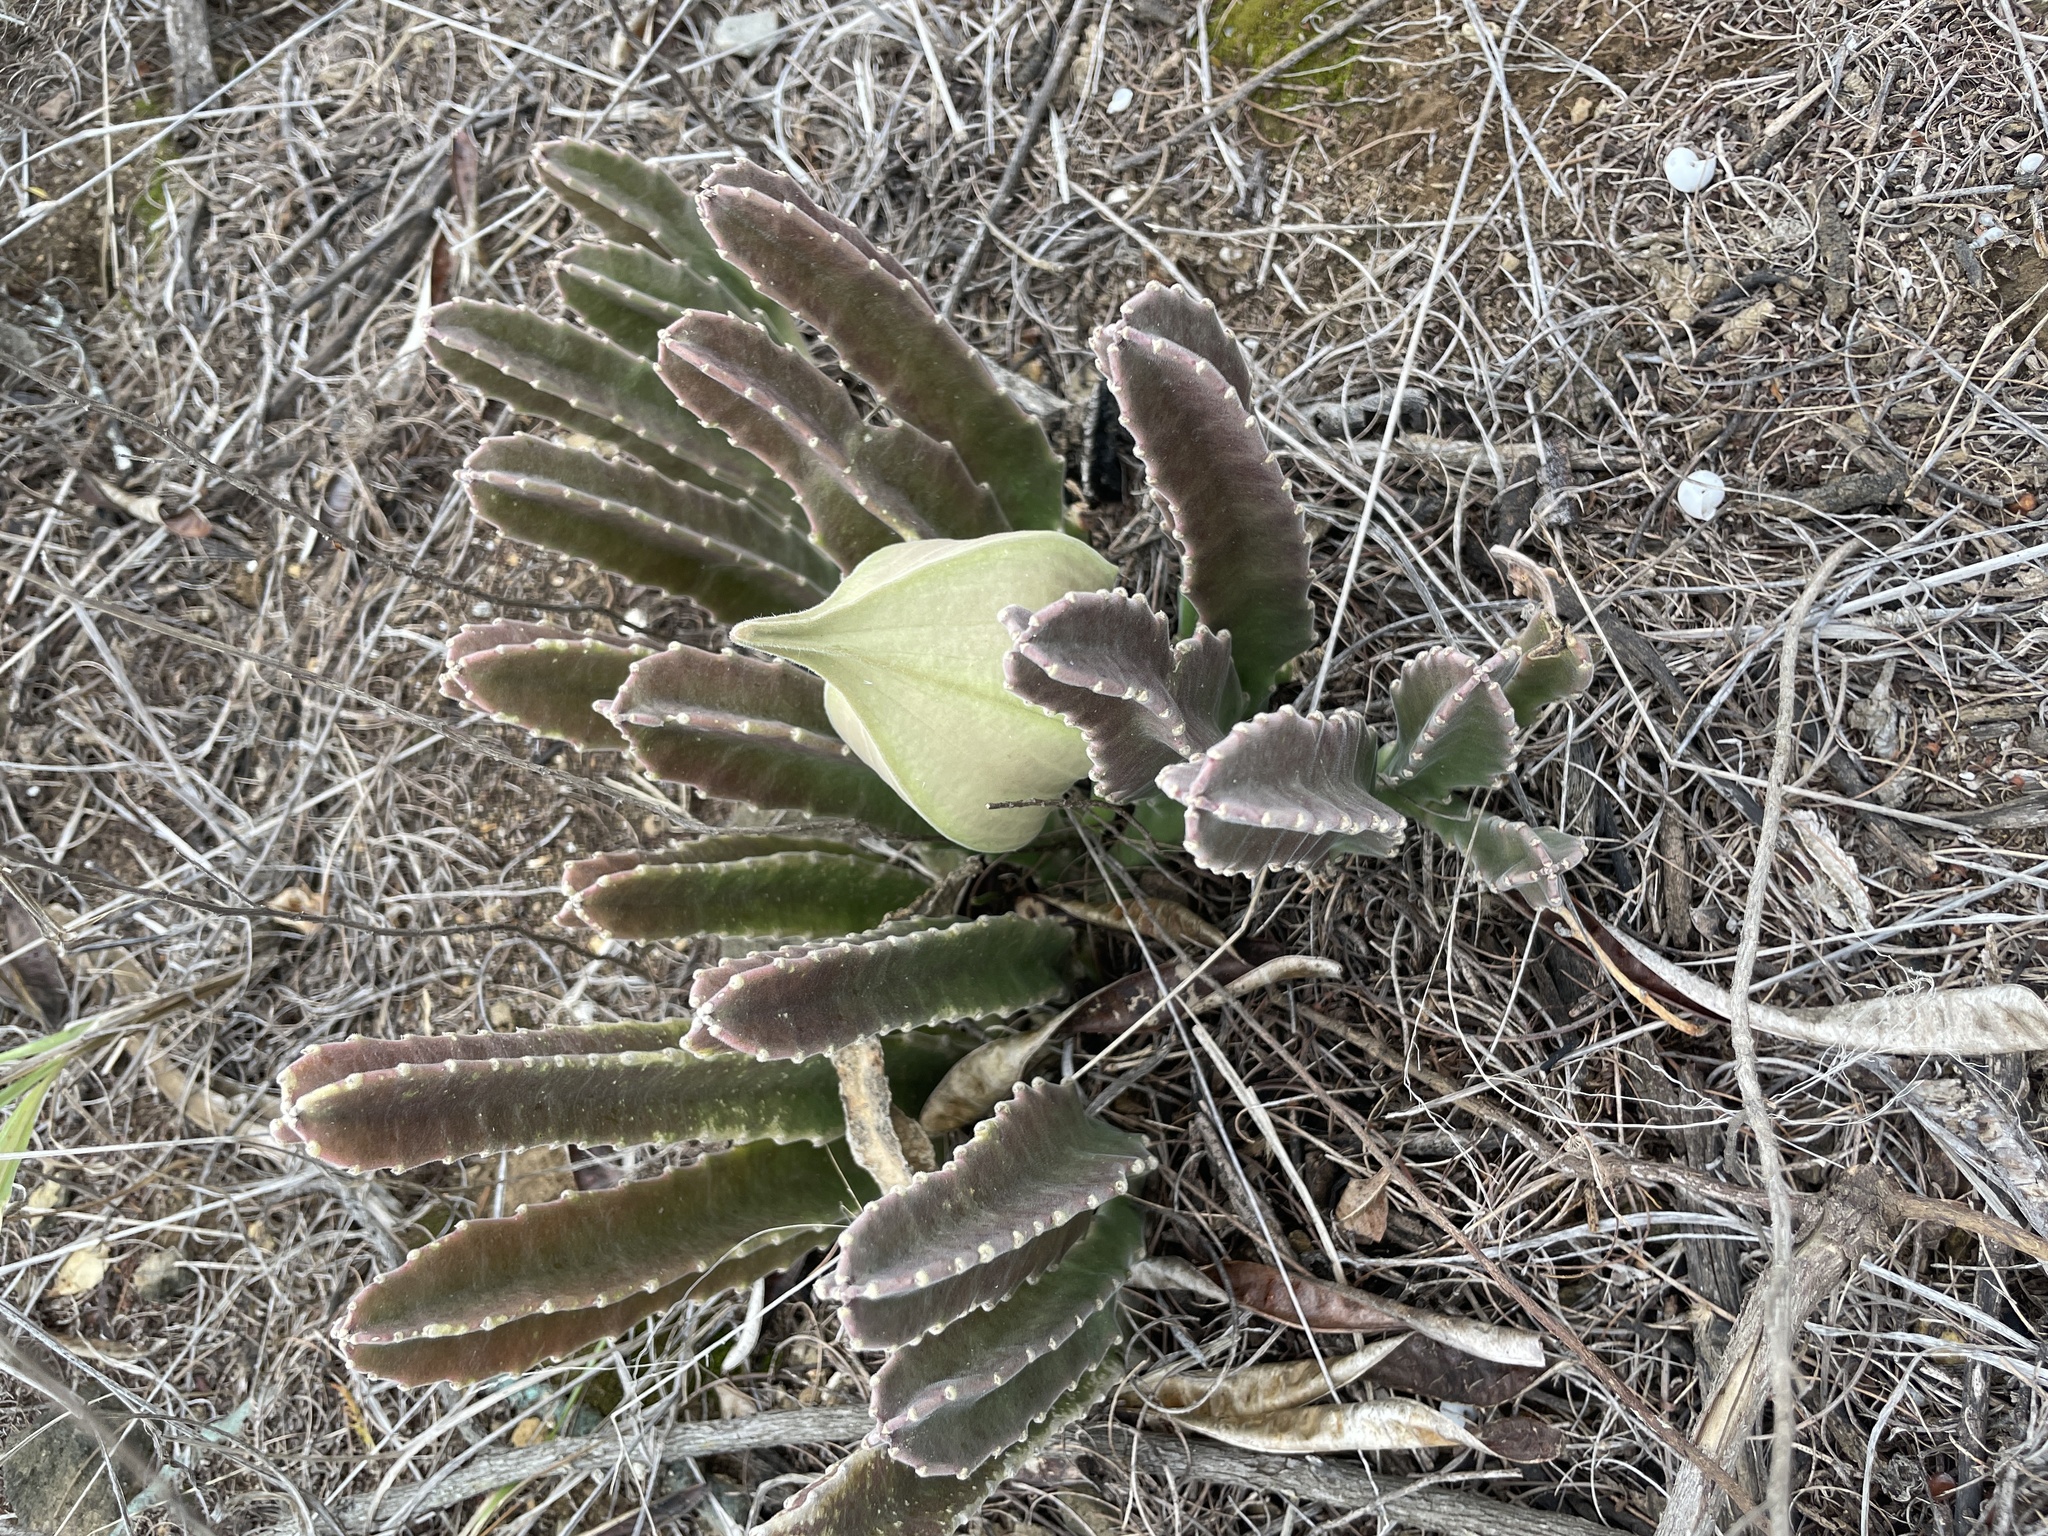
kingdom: Plantae
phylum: Tracheophyta
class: Magnoliopsida
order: Gentianales
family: Apocynaceae
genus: Ceropegia
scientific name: Ceropegia gigantea
